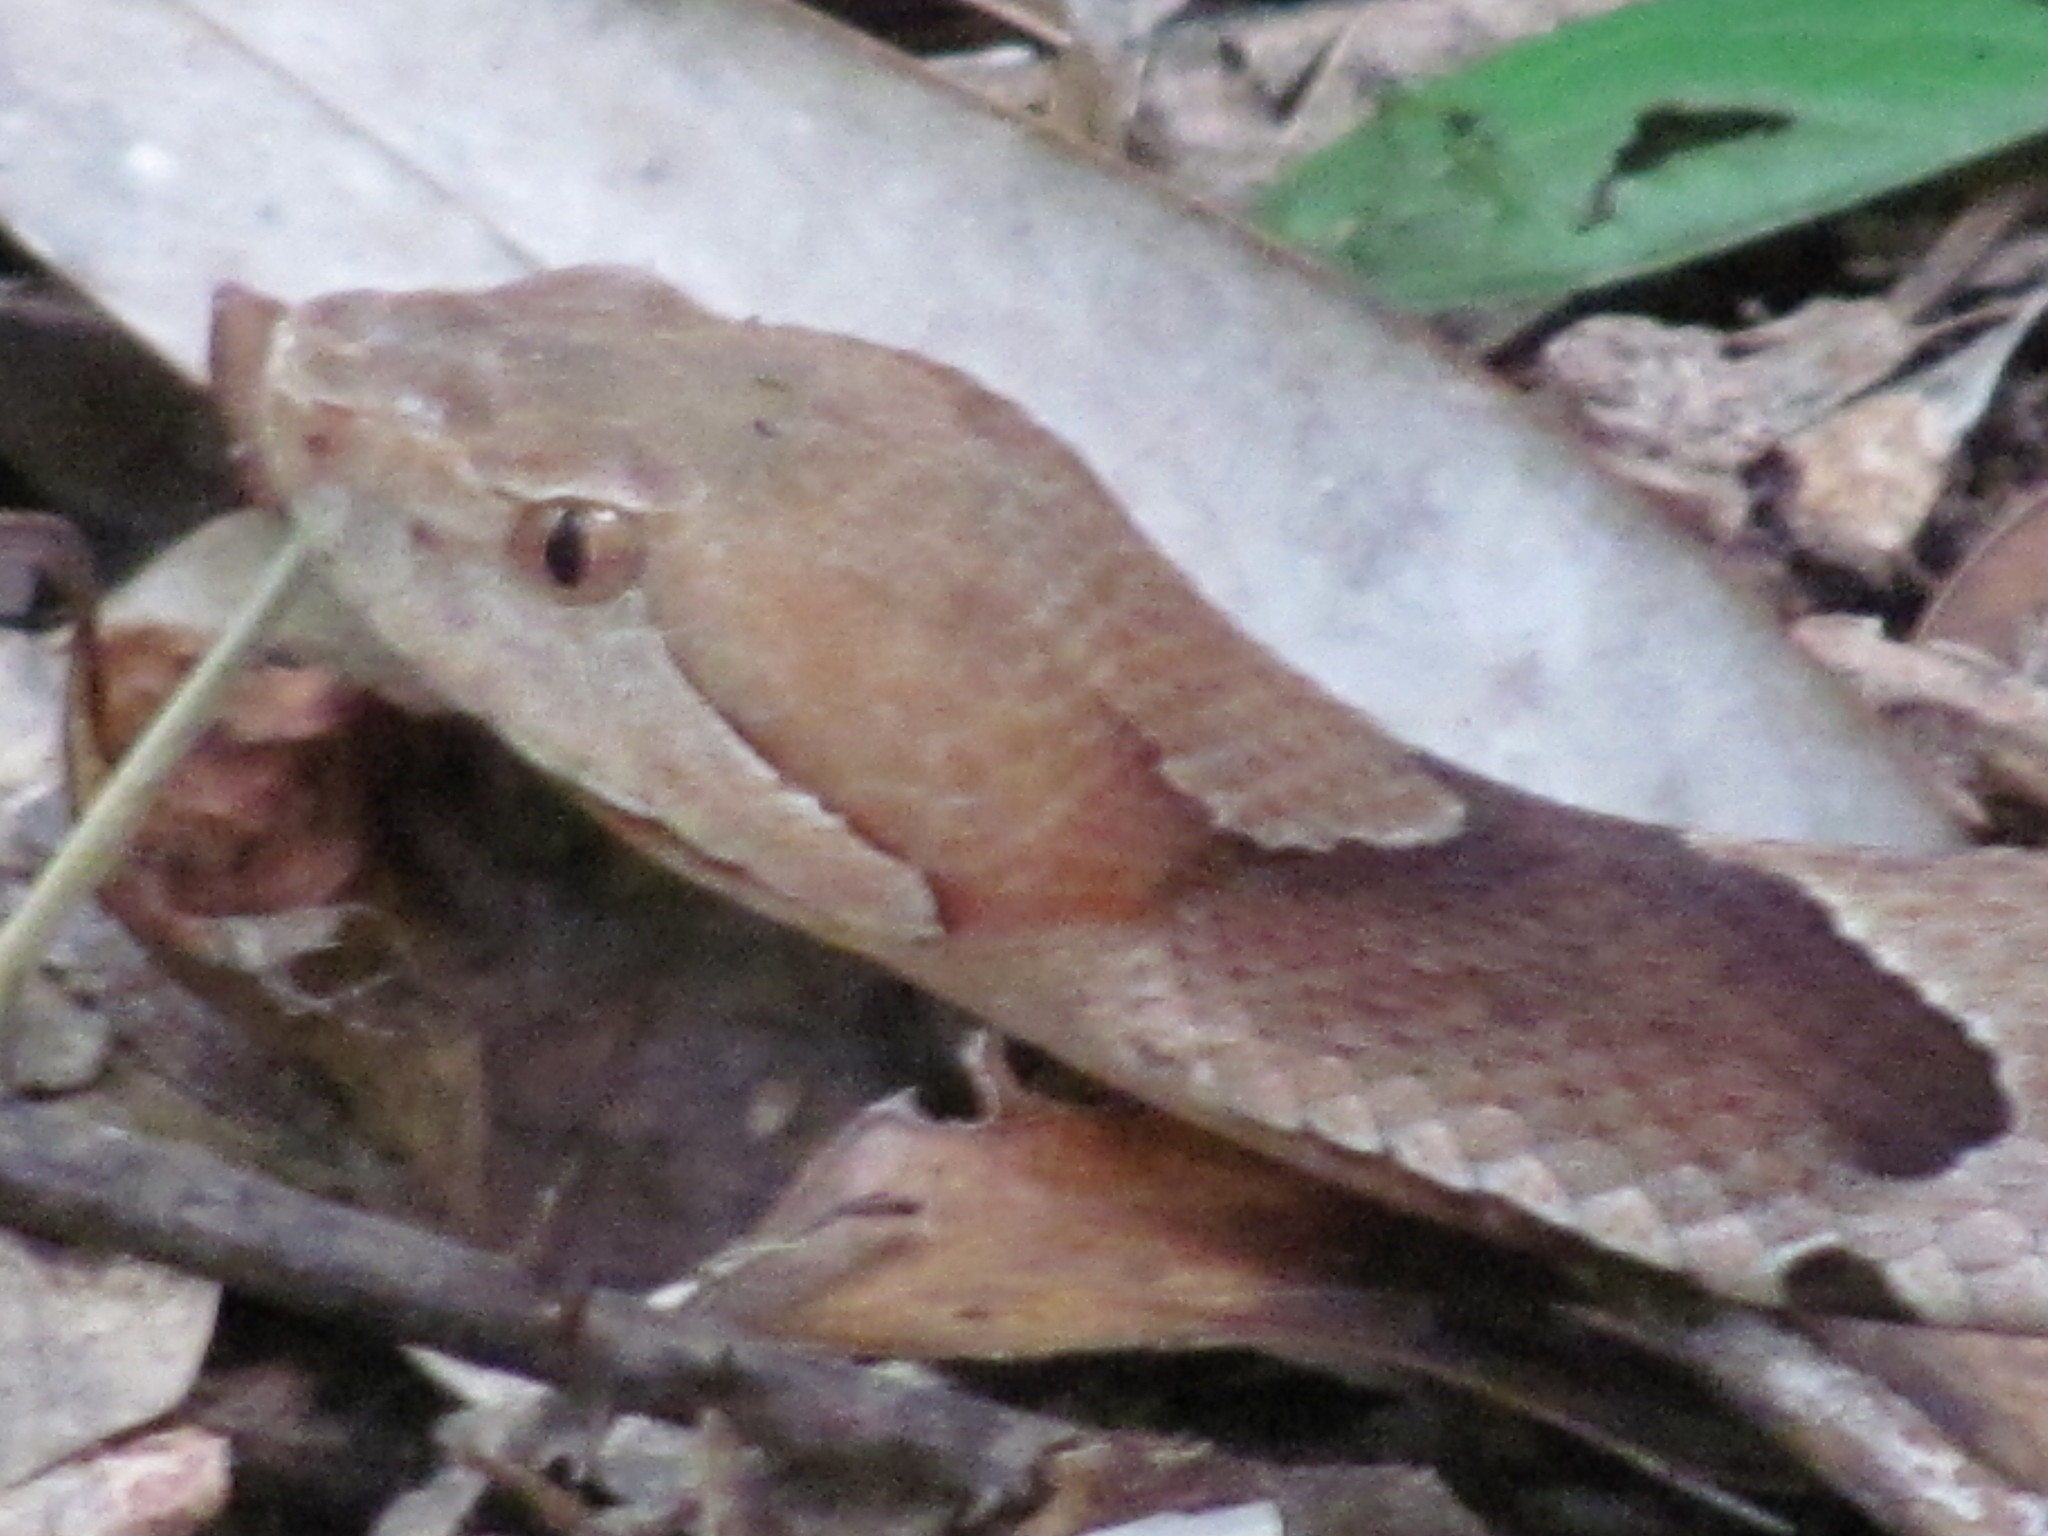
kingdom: Animalia
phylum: Chordata
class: Squamata
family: Viperidae
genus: Agkistrodon
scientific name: Agkistrodon contortrix
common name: Northern copperhead
